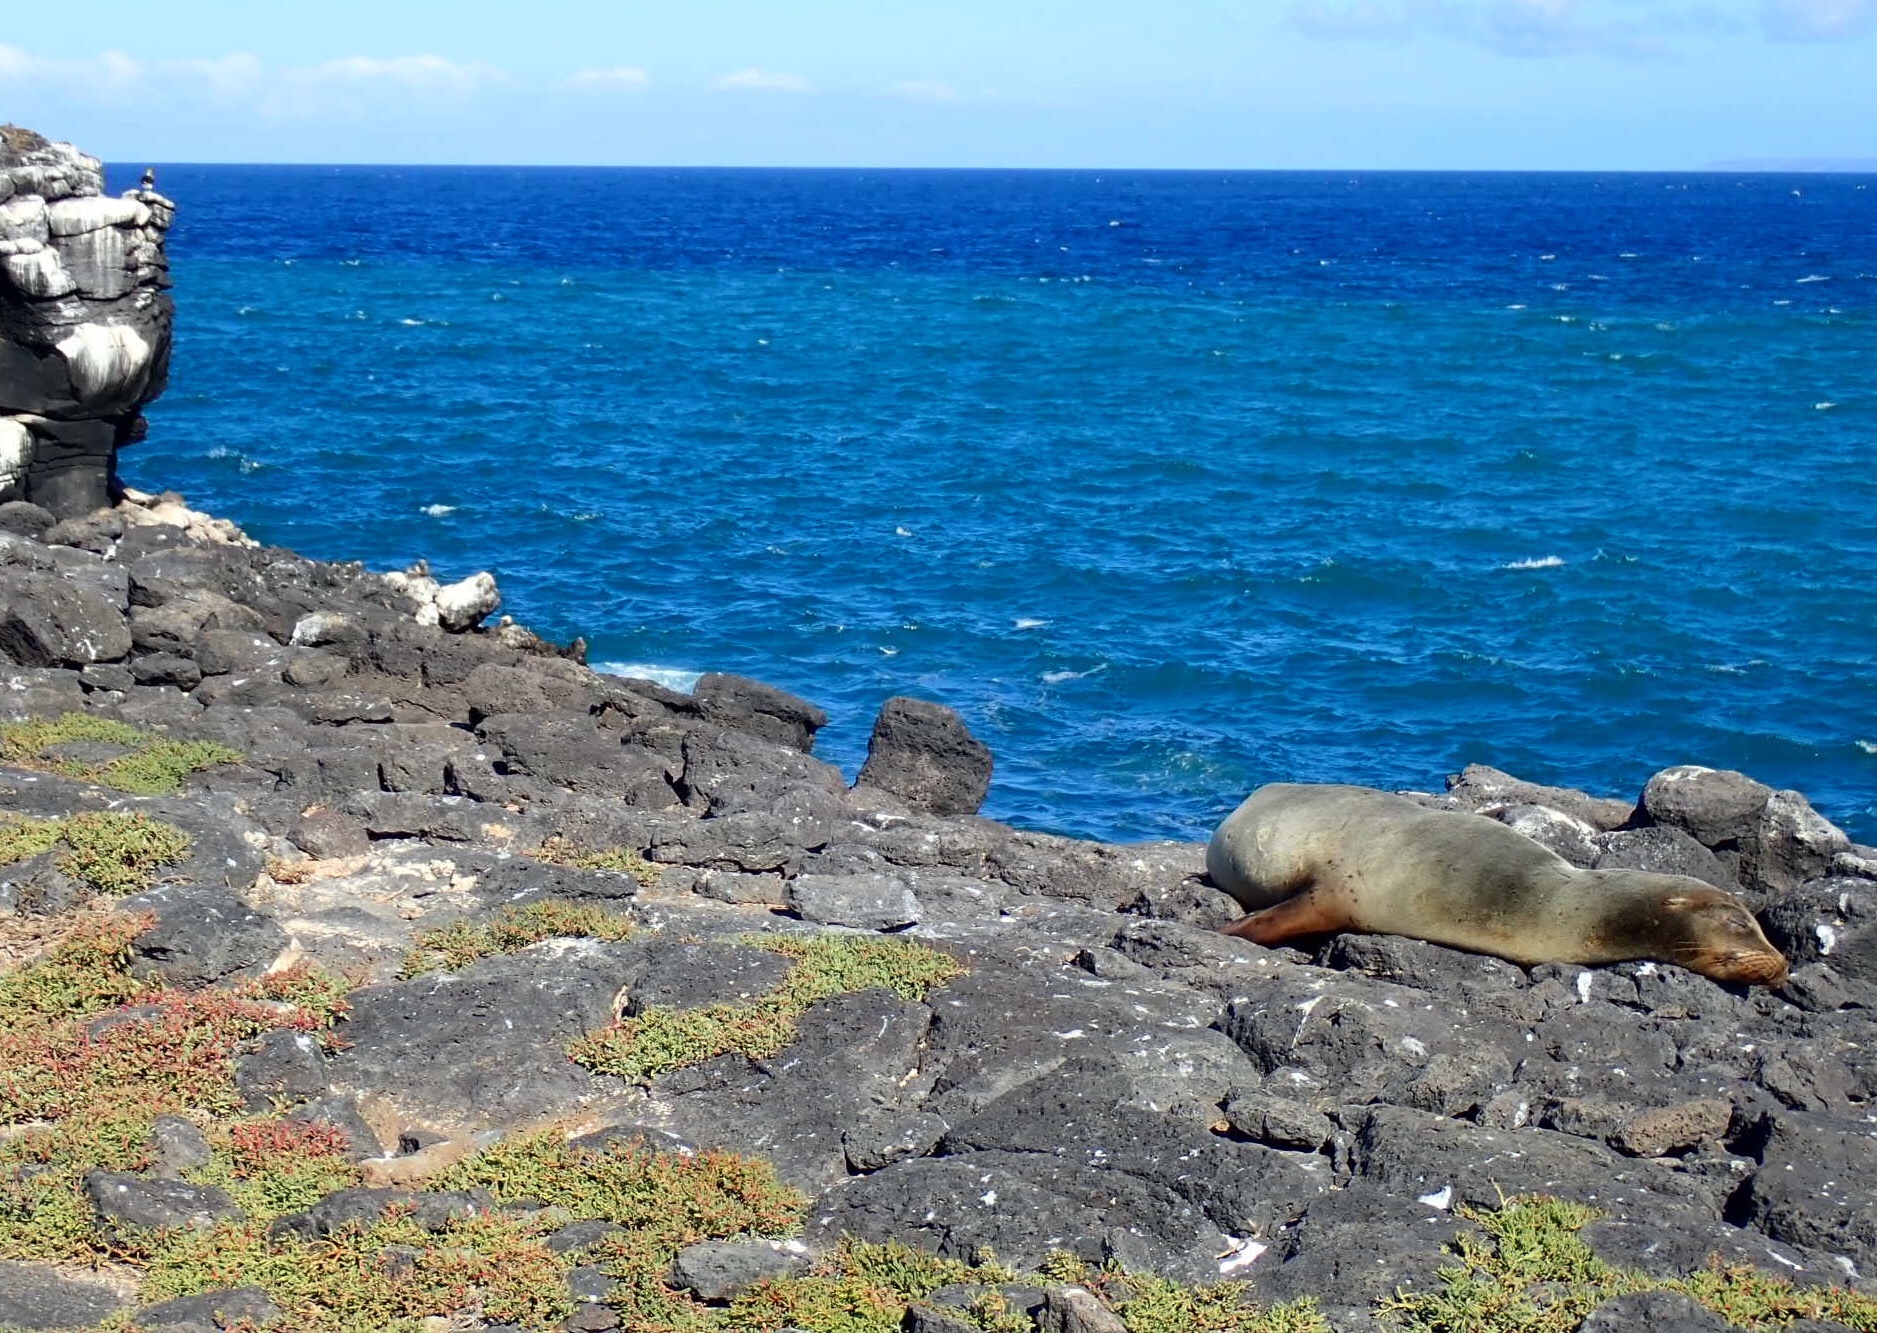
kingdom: Animalia
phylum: Chordata
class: Mammalia
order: Carnivora
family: Otariidae
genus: Zalophus
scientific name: Zalophus wollebaeki
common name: Galapagos sea lion
